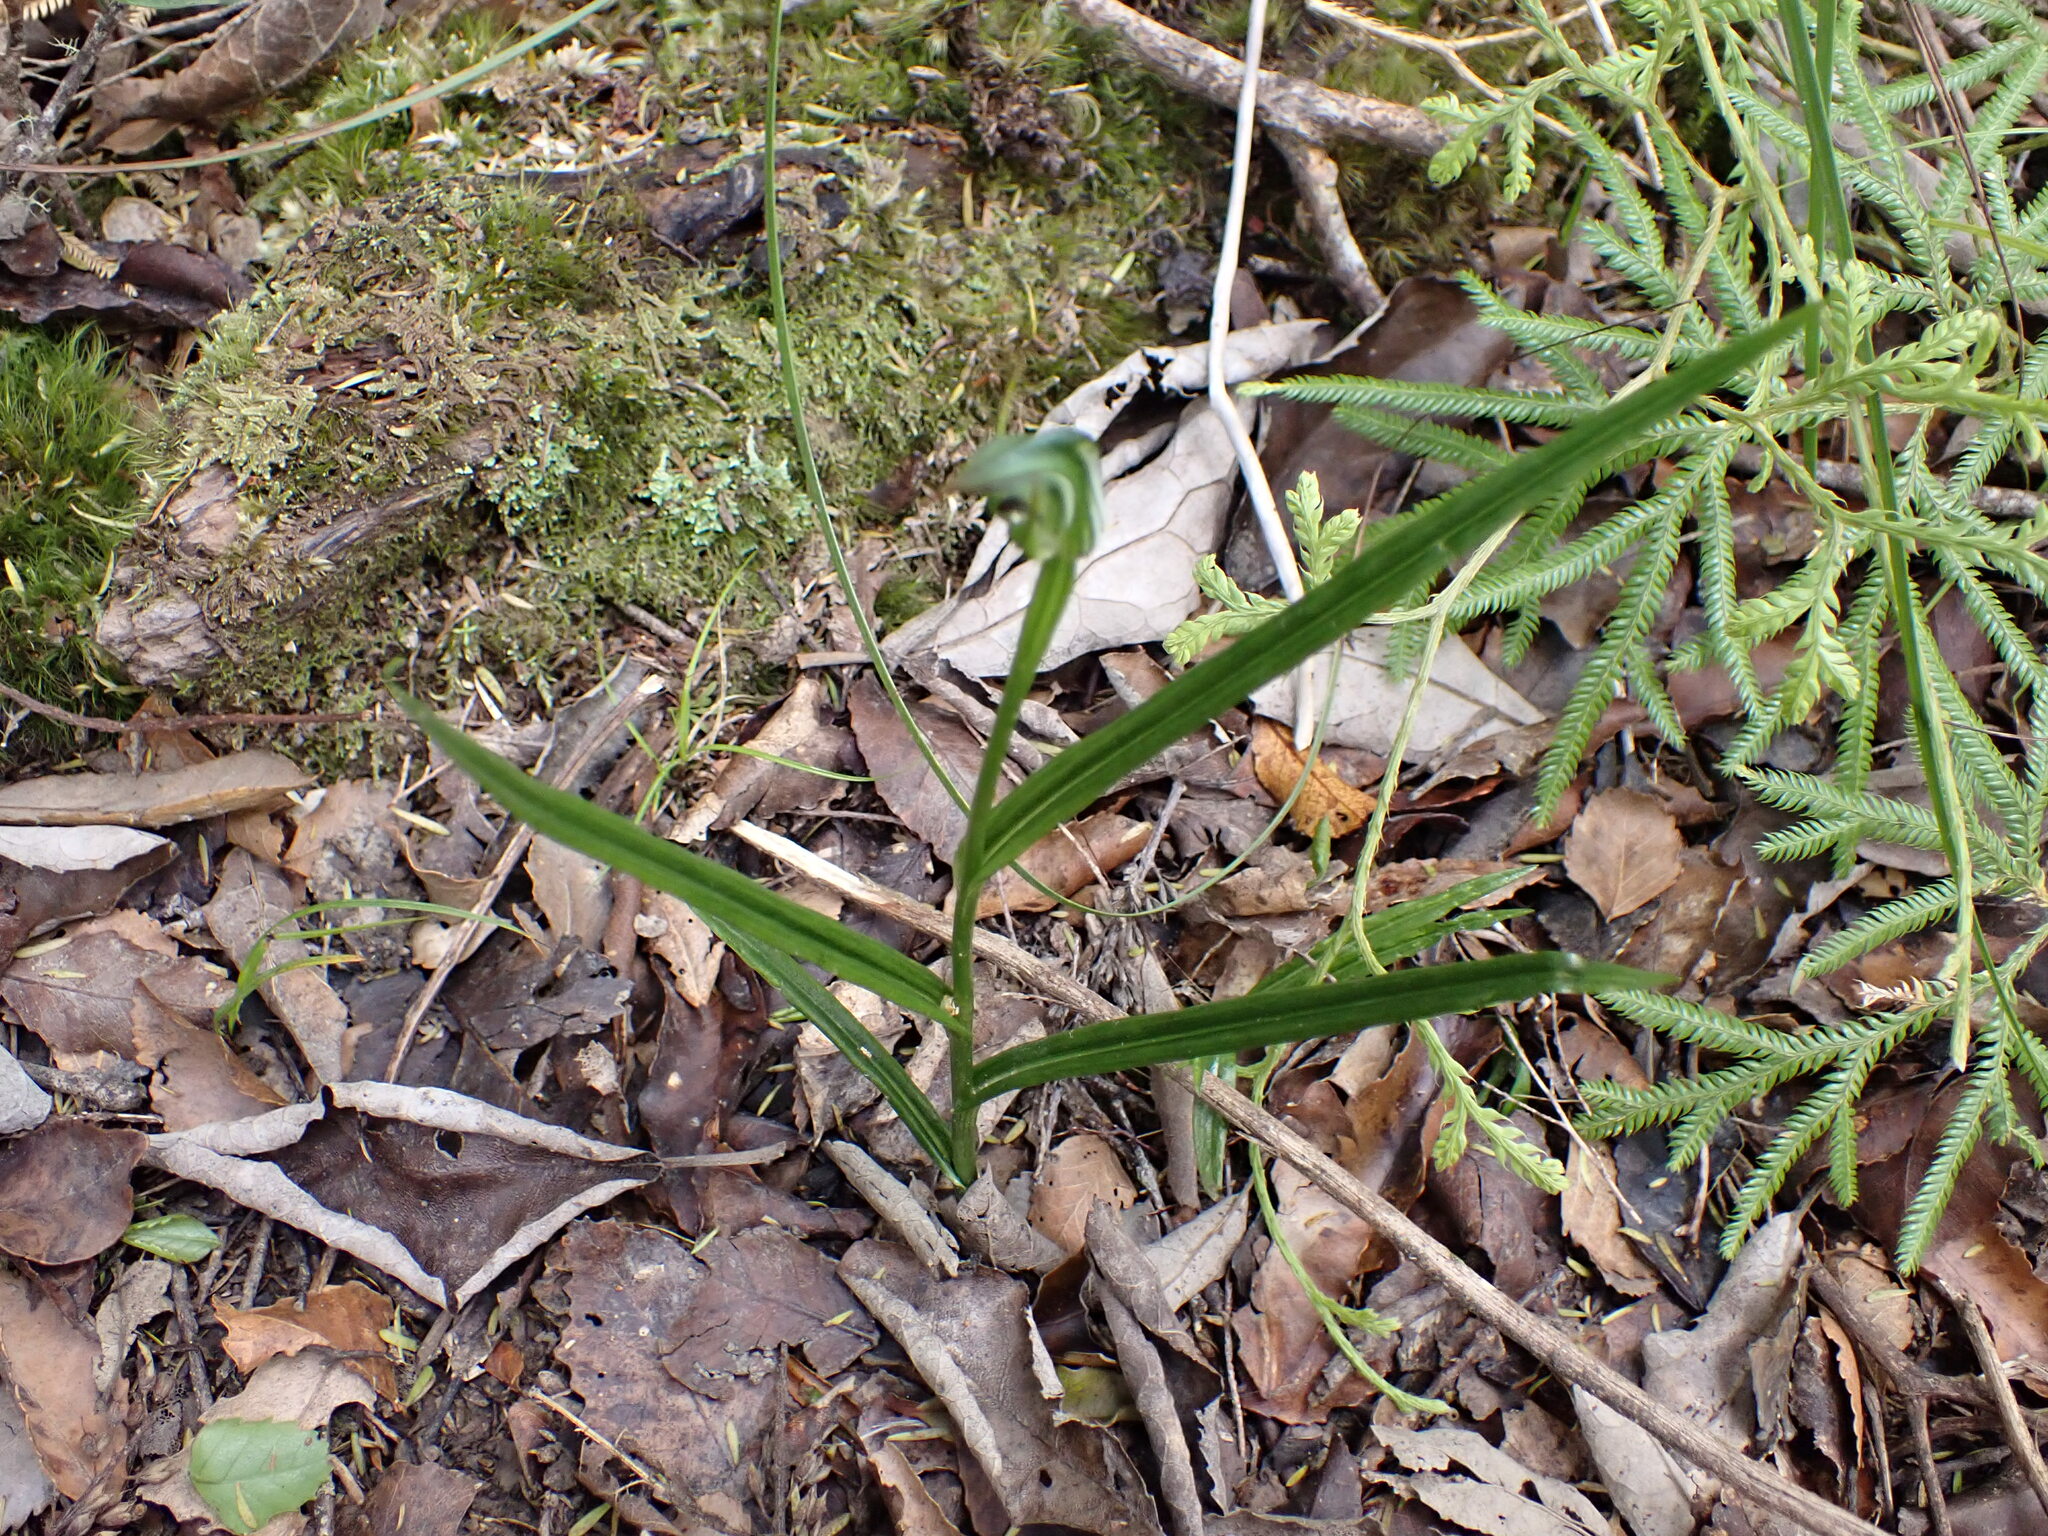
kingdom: Plantae
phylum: Tracheophyta
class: Liliopsida
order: Asparagales
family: Orchidaceae
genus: Pterostylis
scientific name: Pterostylis graminea
